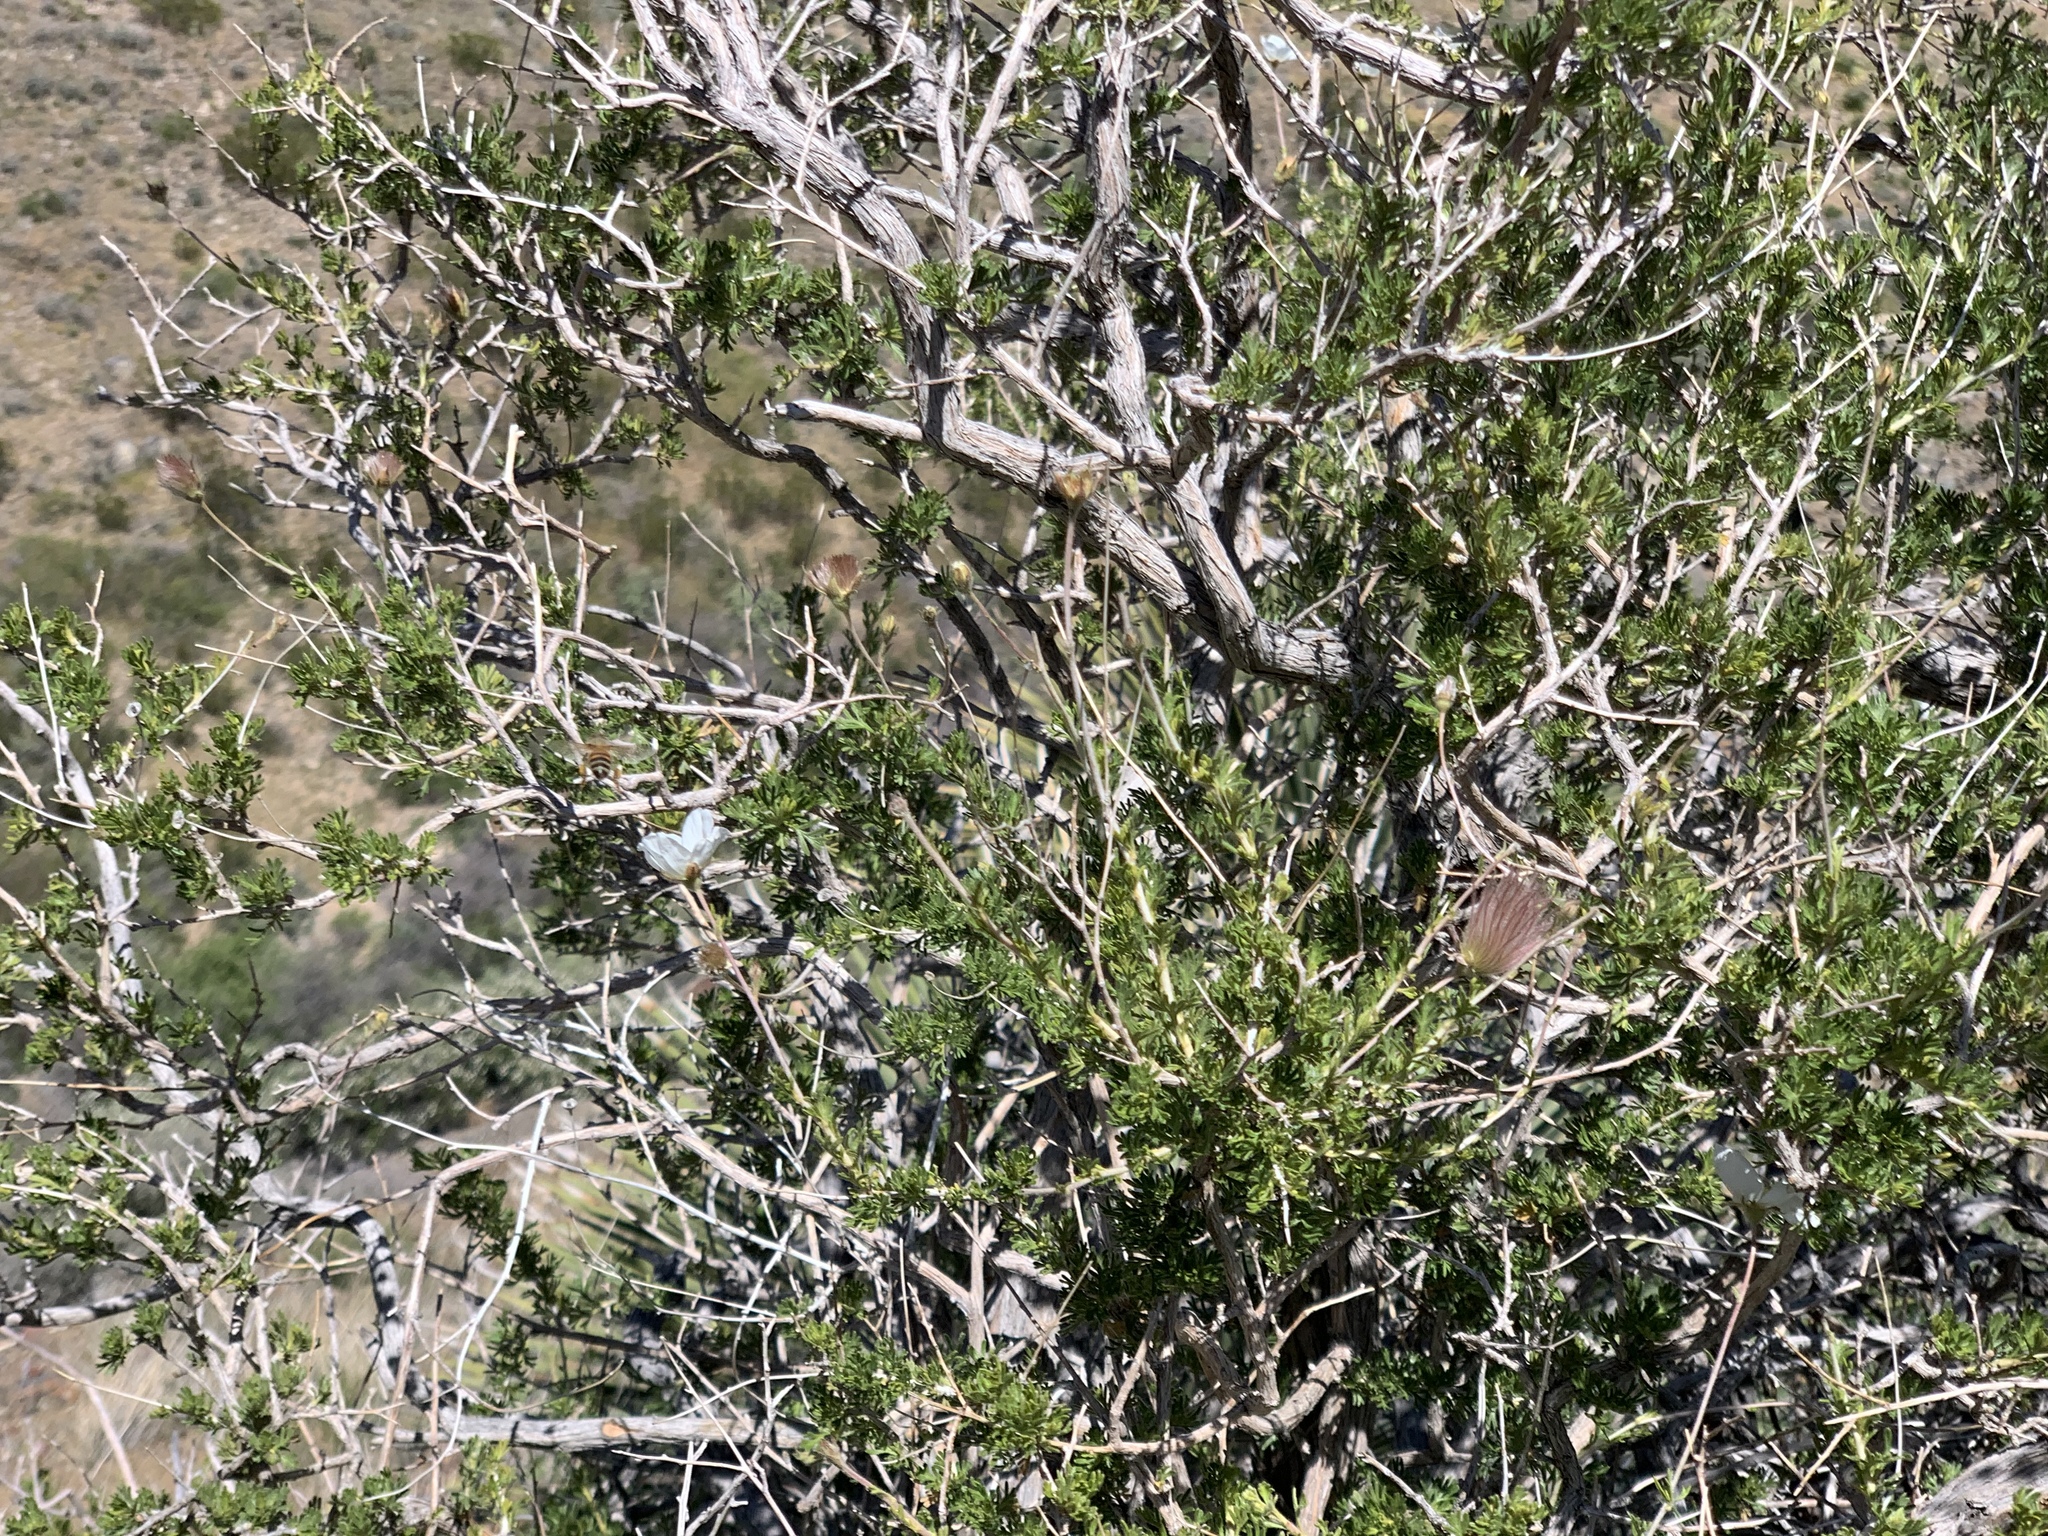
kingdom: Plantae
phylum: Tracheophyta
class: Magnoliopsida
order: Rosales
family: Rosaceae
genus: Fallugia
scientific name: Fallugia paradoxa
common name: Apache-plume
